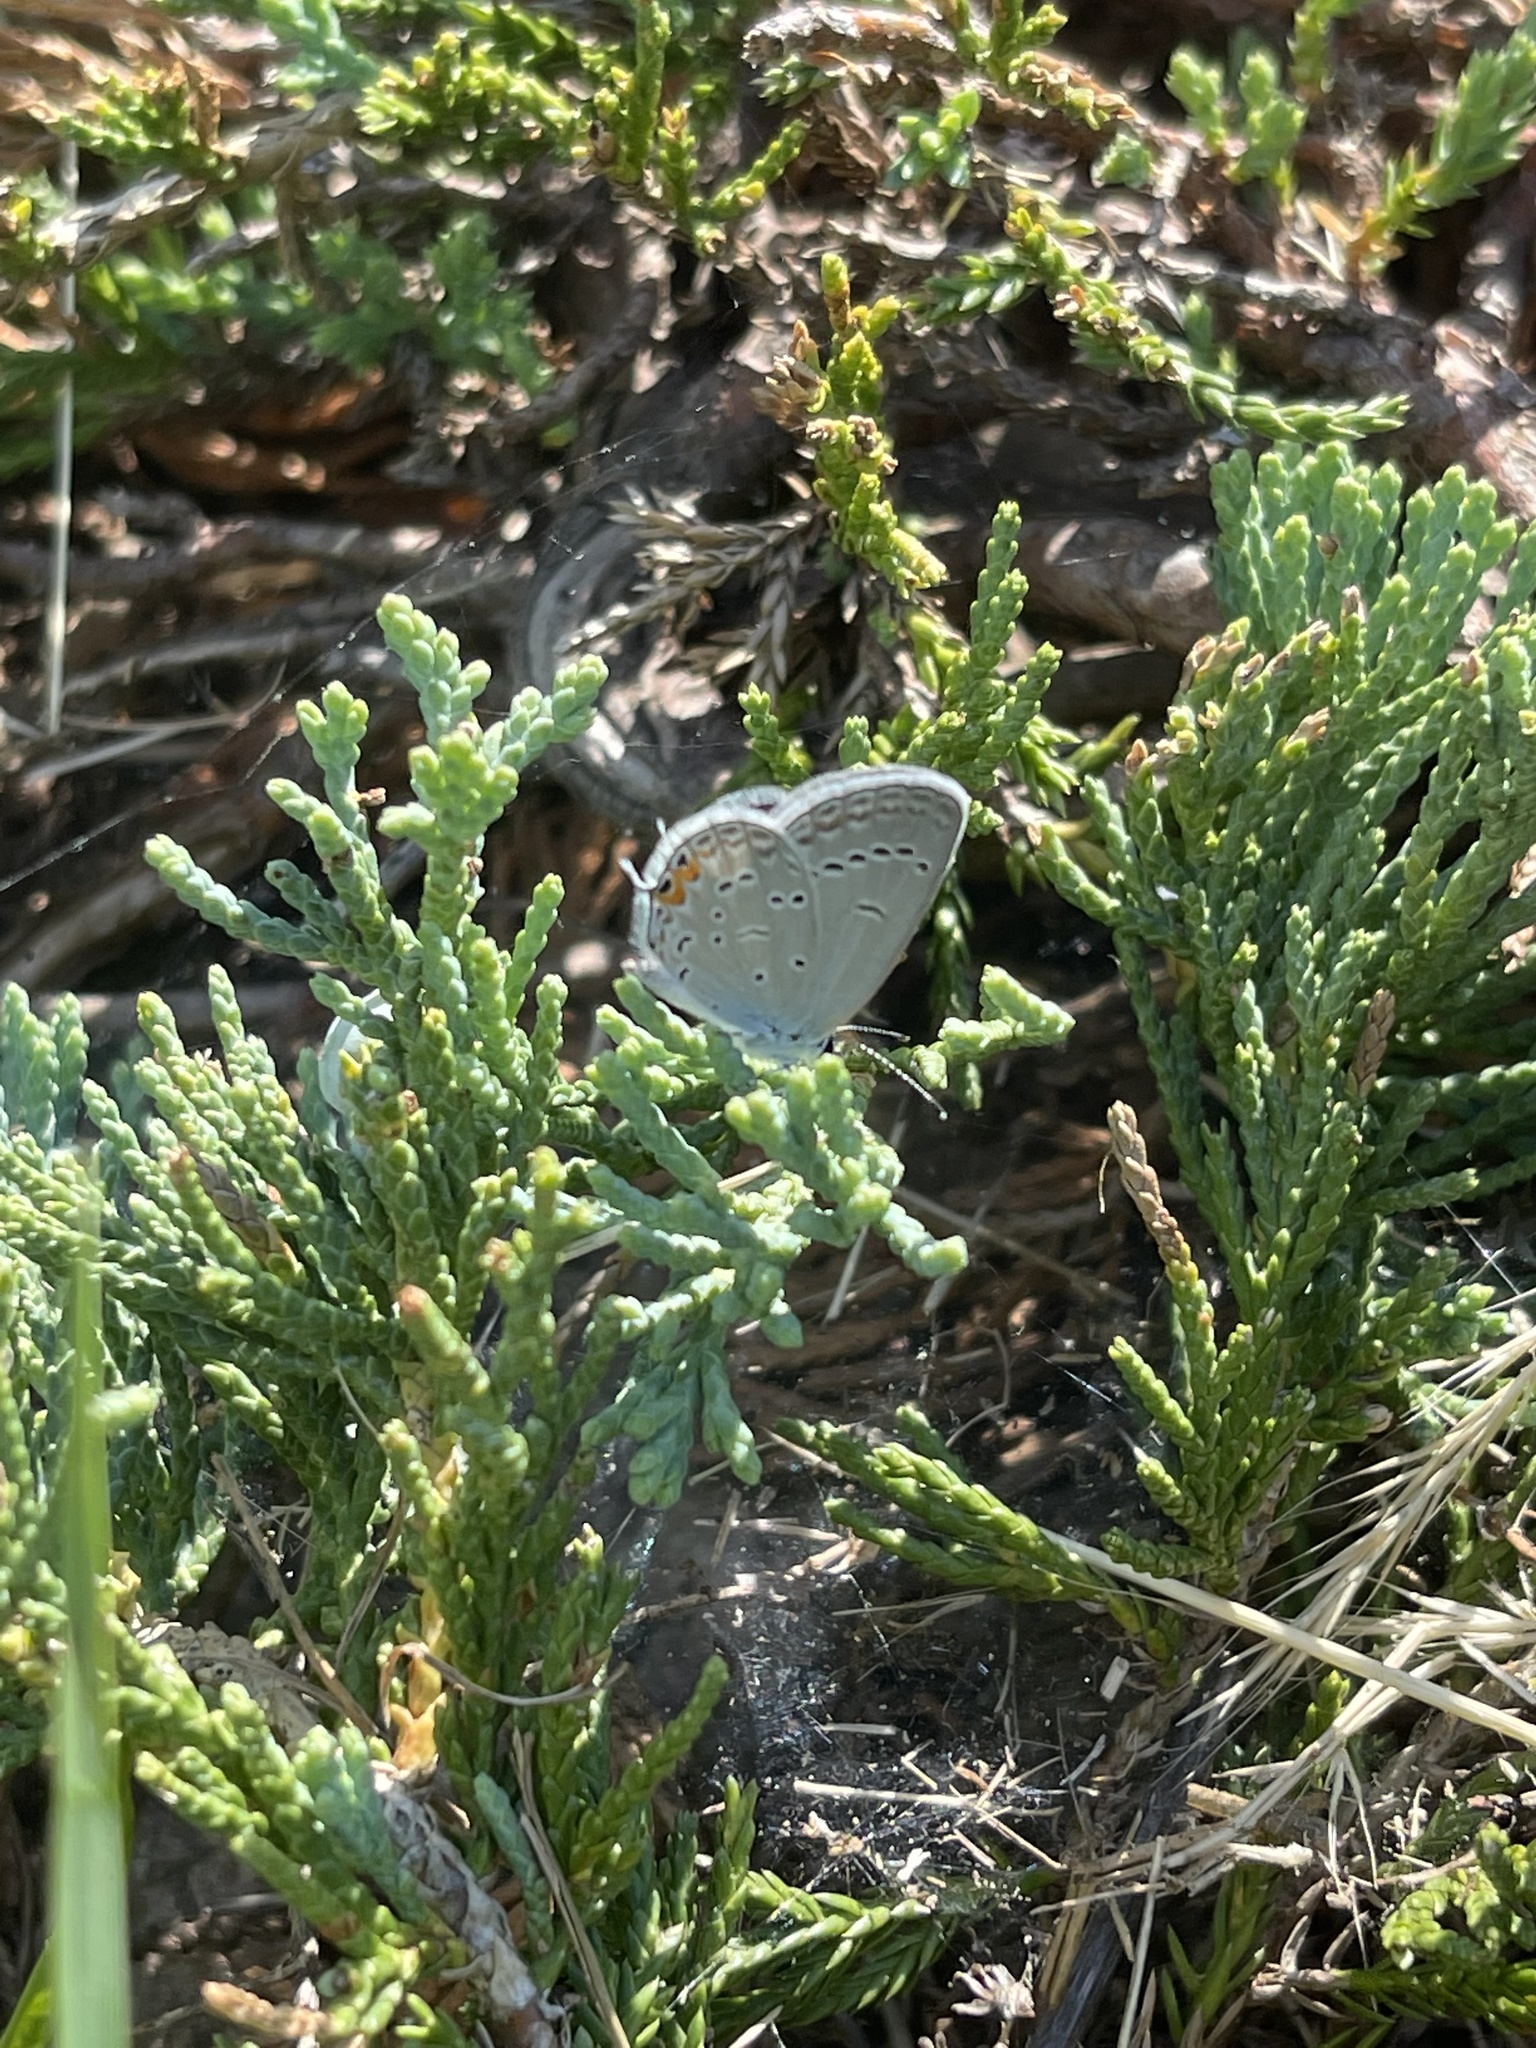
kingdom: Animalia
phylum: Arthropoda
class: Insecta
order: Lepidoptera
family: Lycaenidae
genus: Elkalyce
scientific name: Elkalyce comyntas
